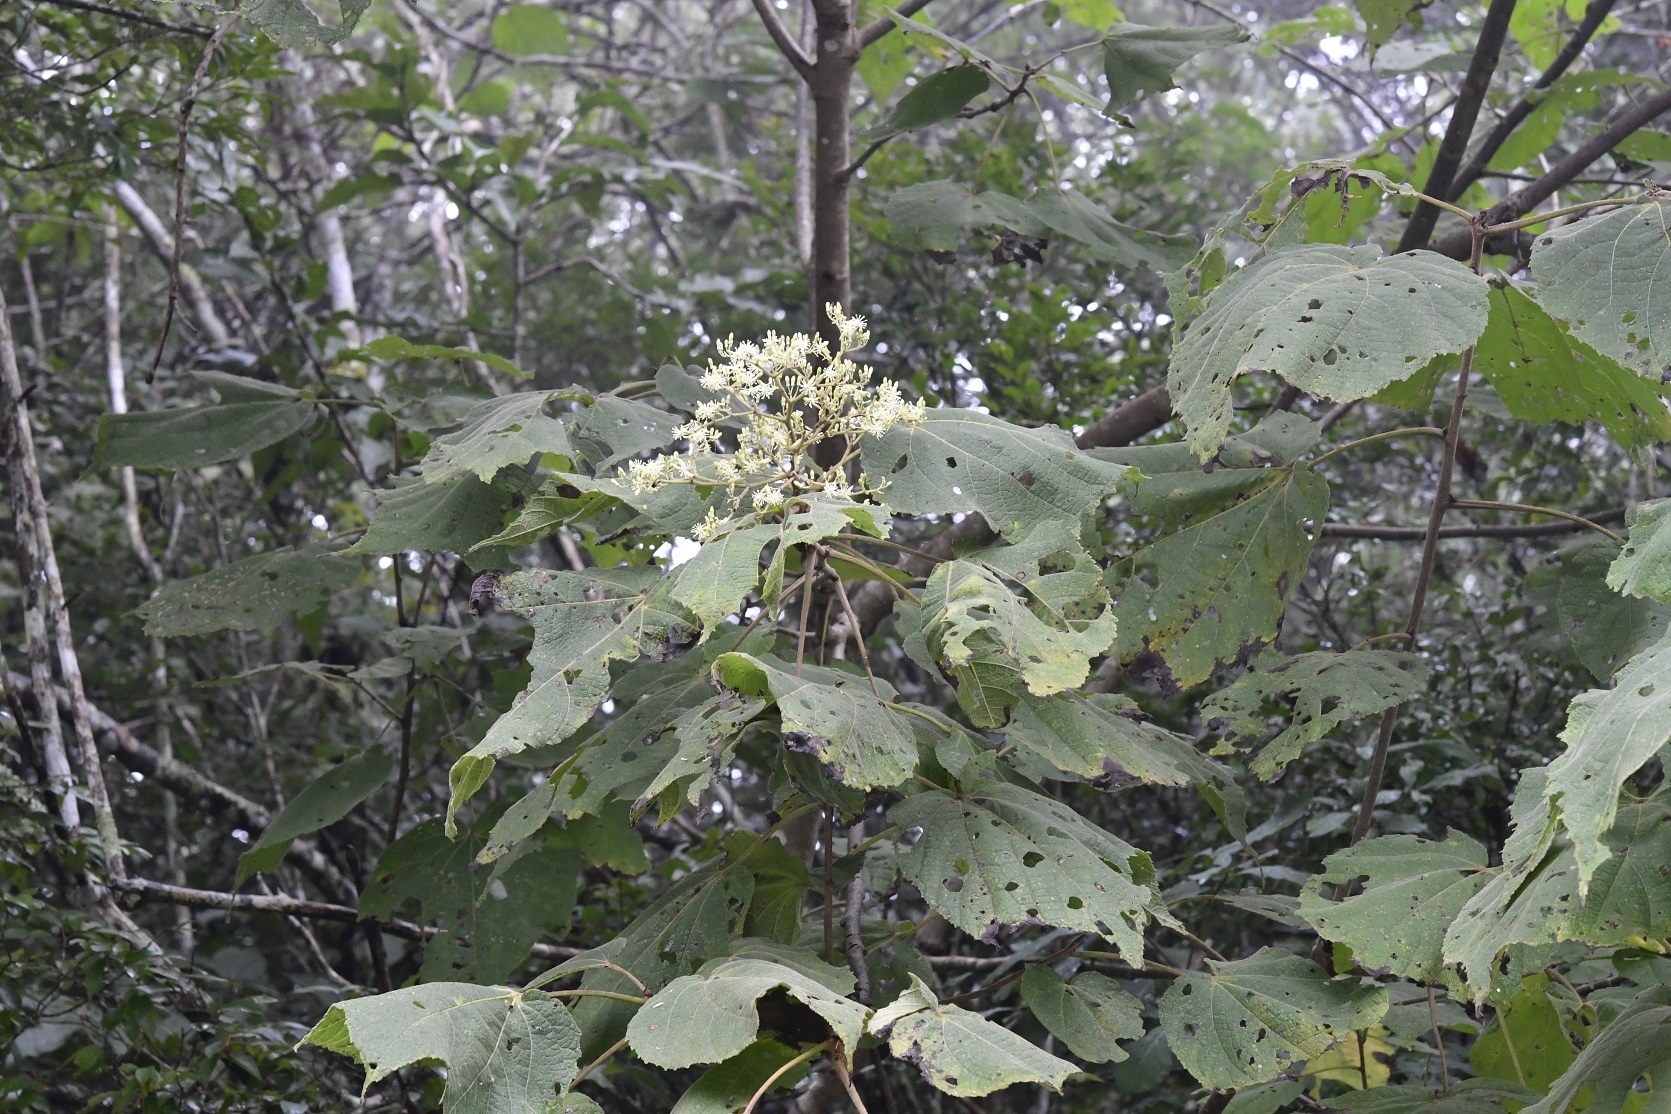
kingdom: Plantae
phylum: Tracheophyta
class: Magnoliopsida
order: Malvales
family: Malvaceae
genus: Heliocarpus
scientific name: Heliocarpus terebinthinaceus
